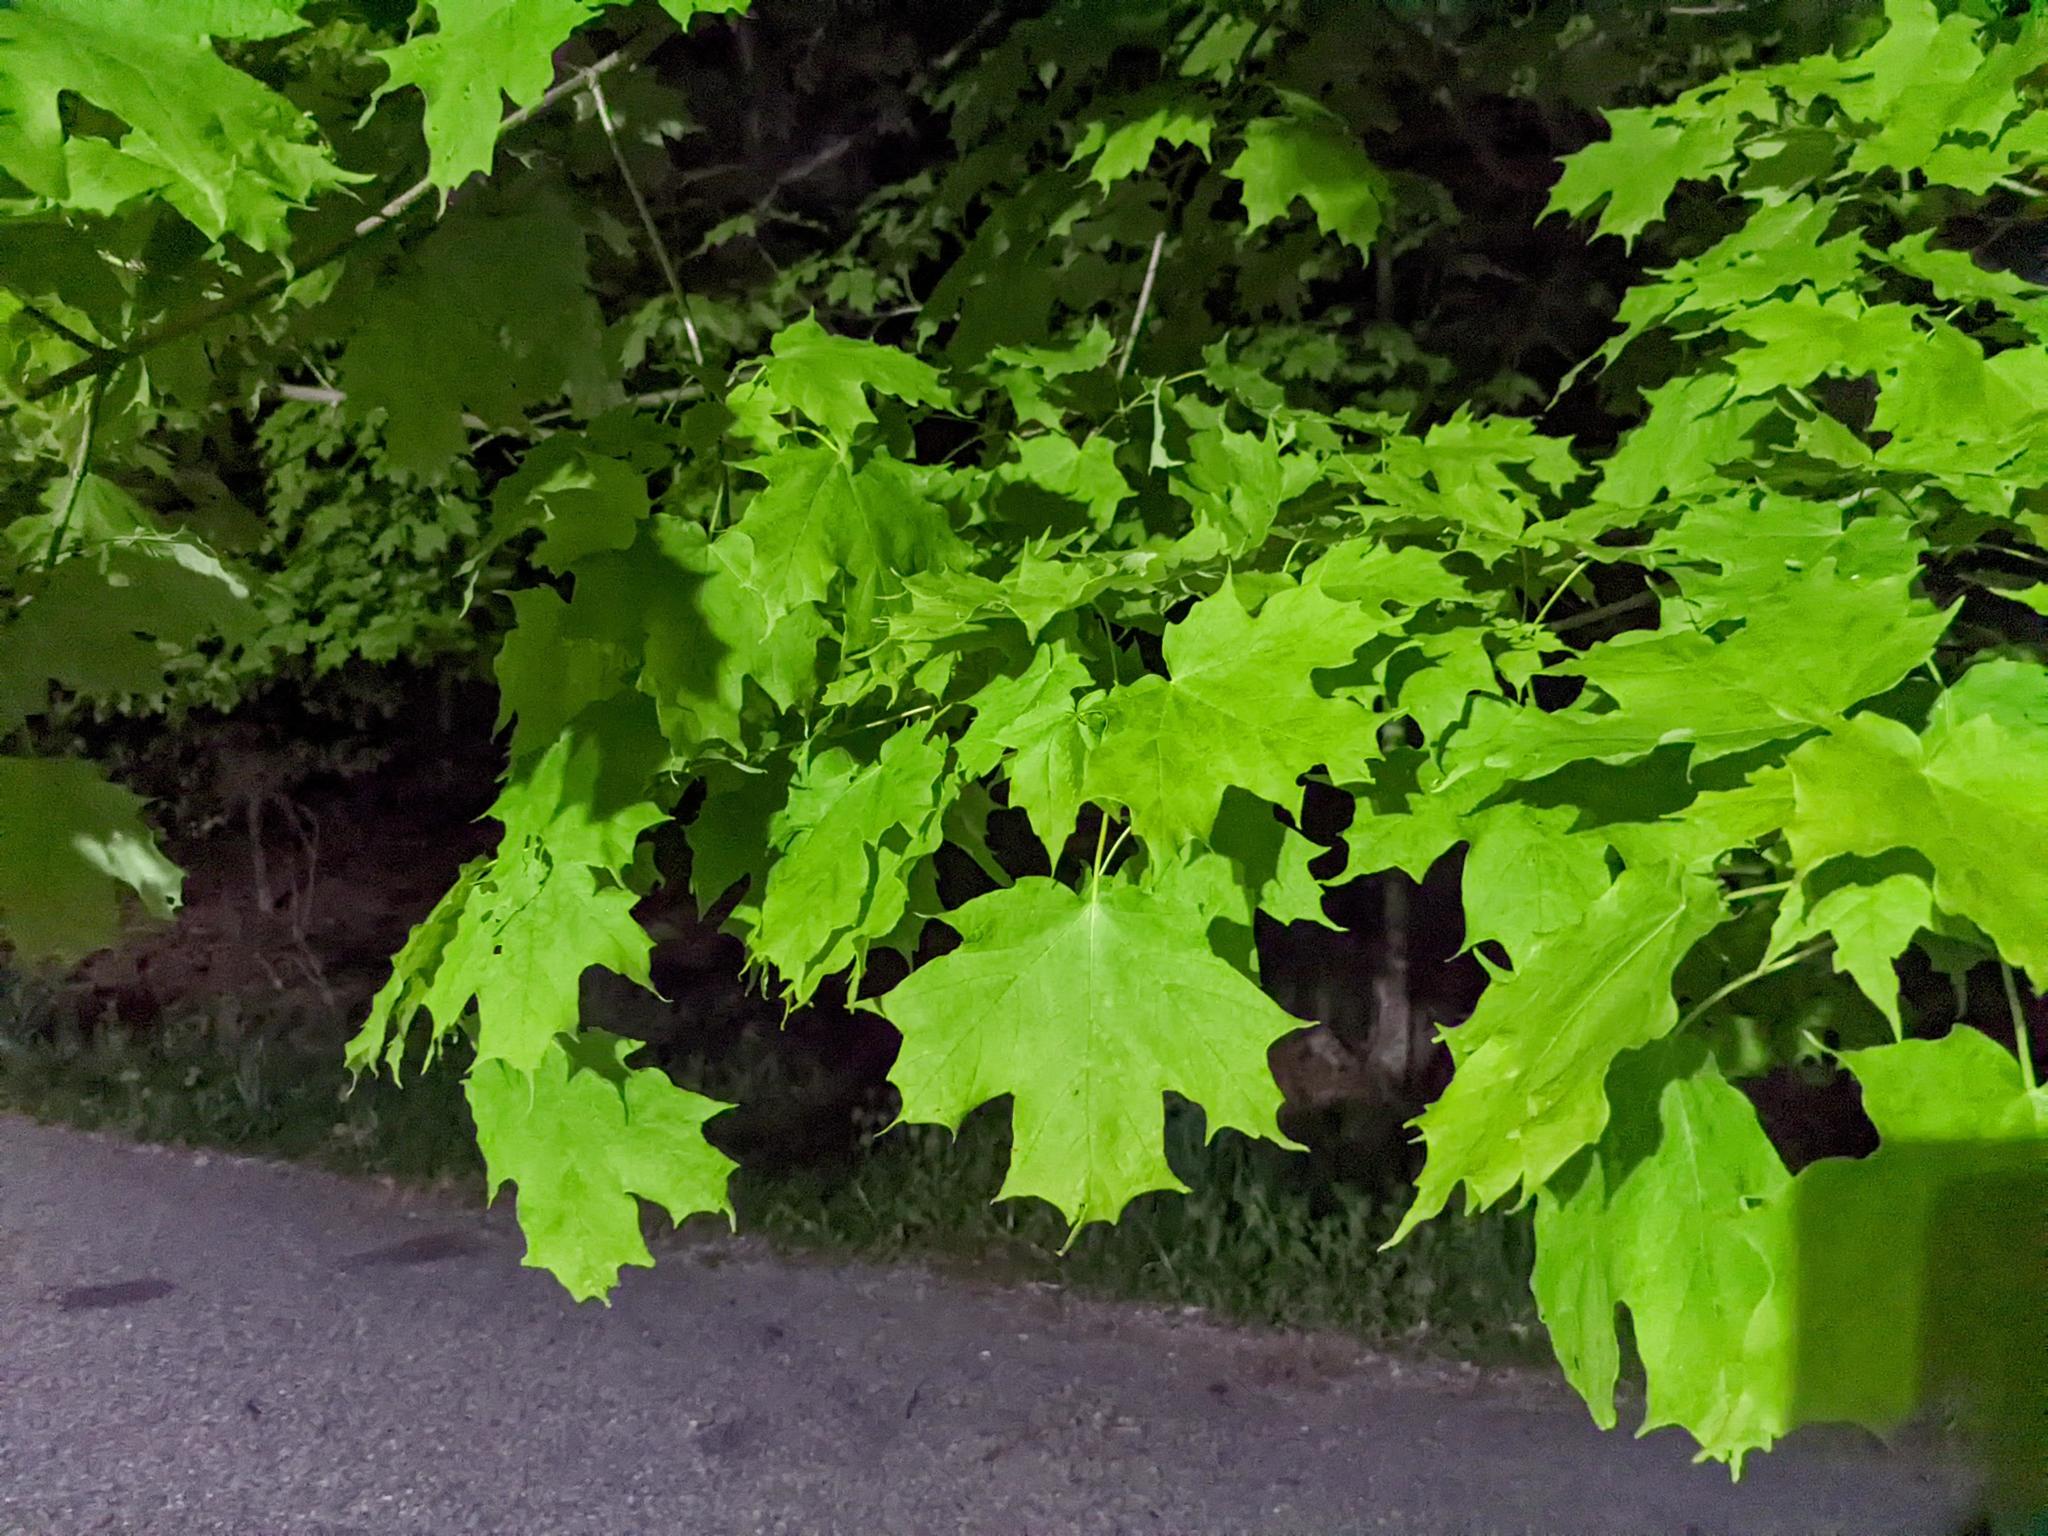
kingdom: Plantae
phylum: Tracheophyta
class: Magnoliopsida
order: Sapindales
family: Sapindaceae
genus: Acer
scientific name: Acer saccharum
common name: Sugar maple
